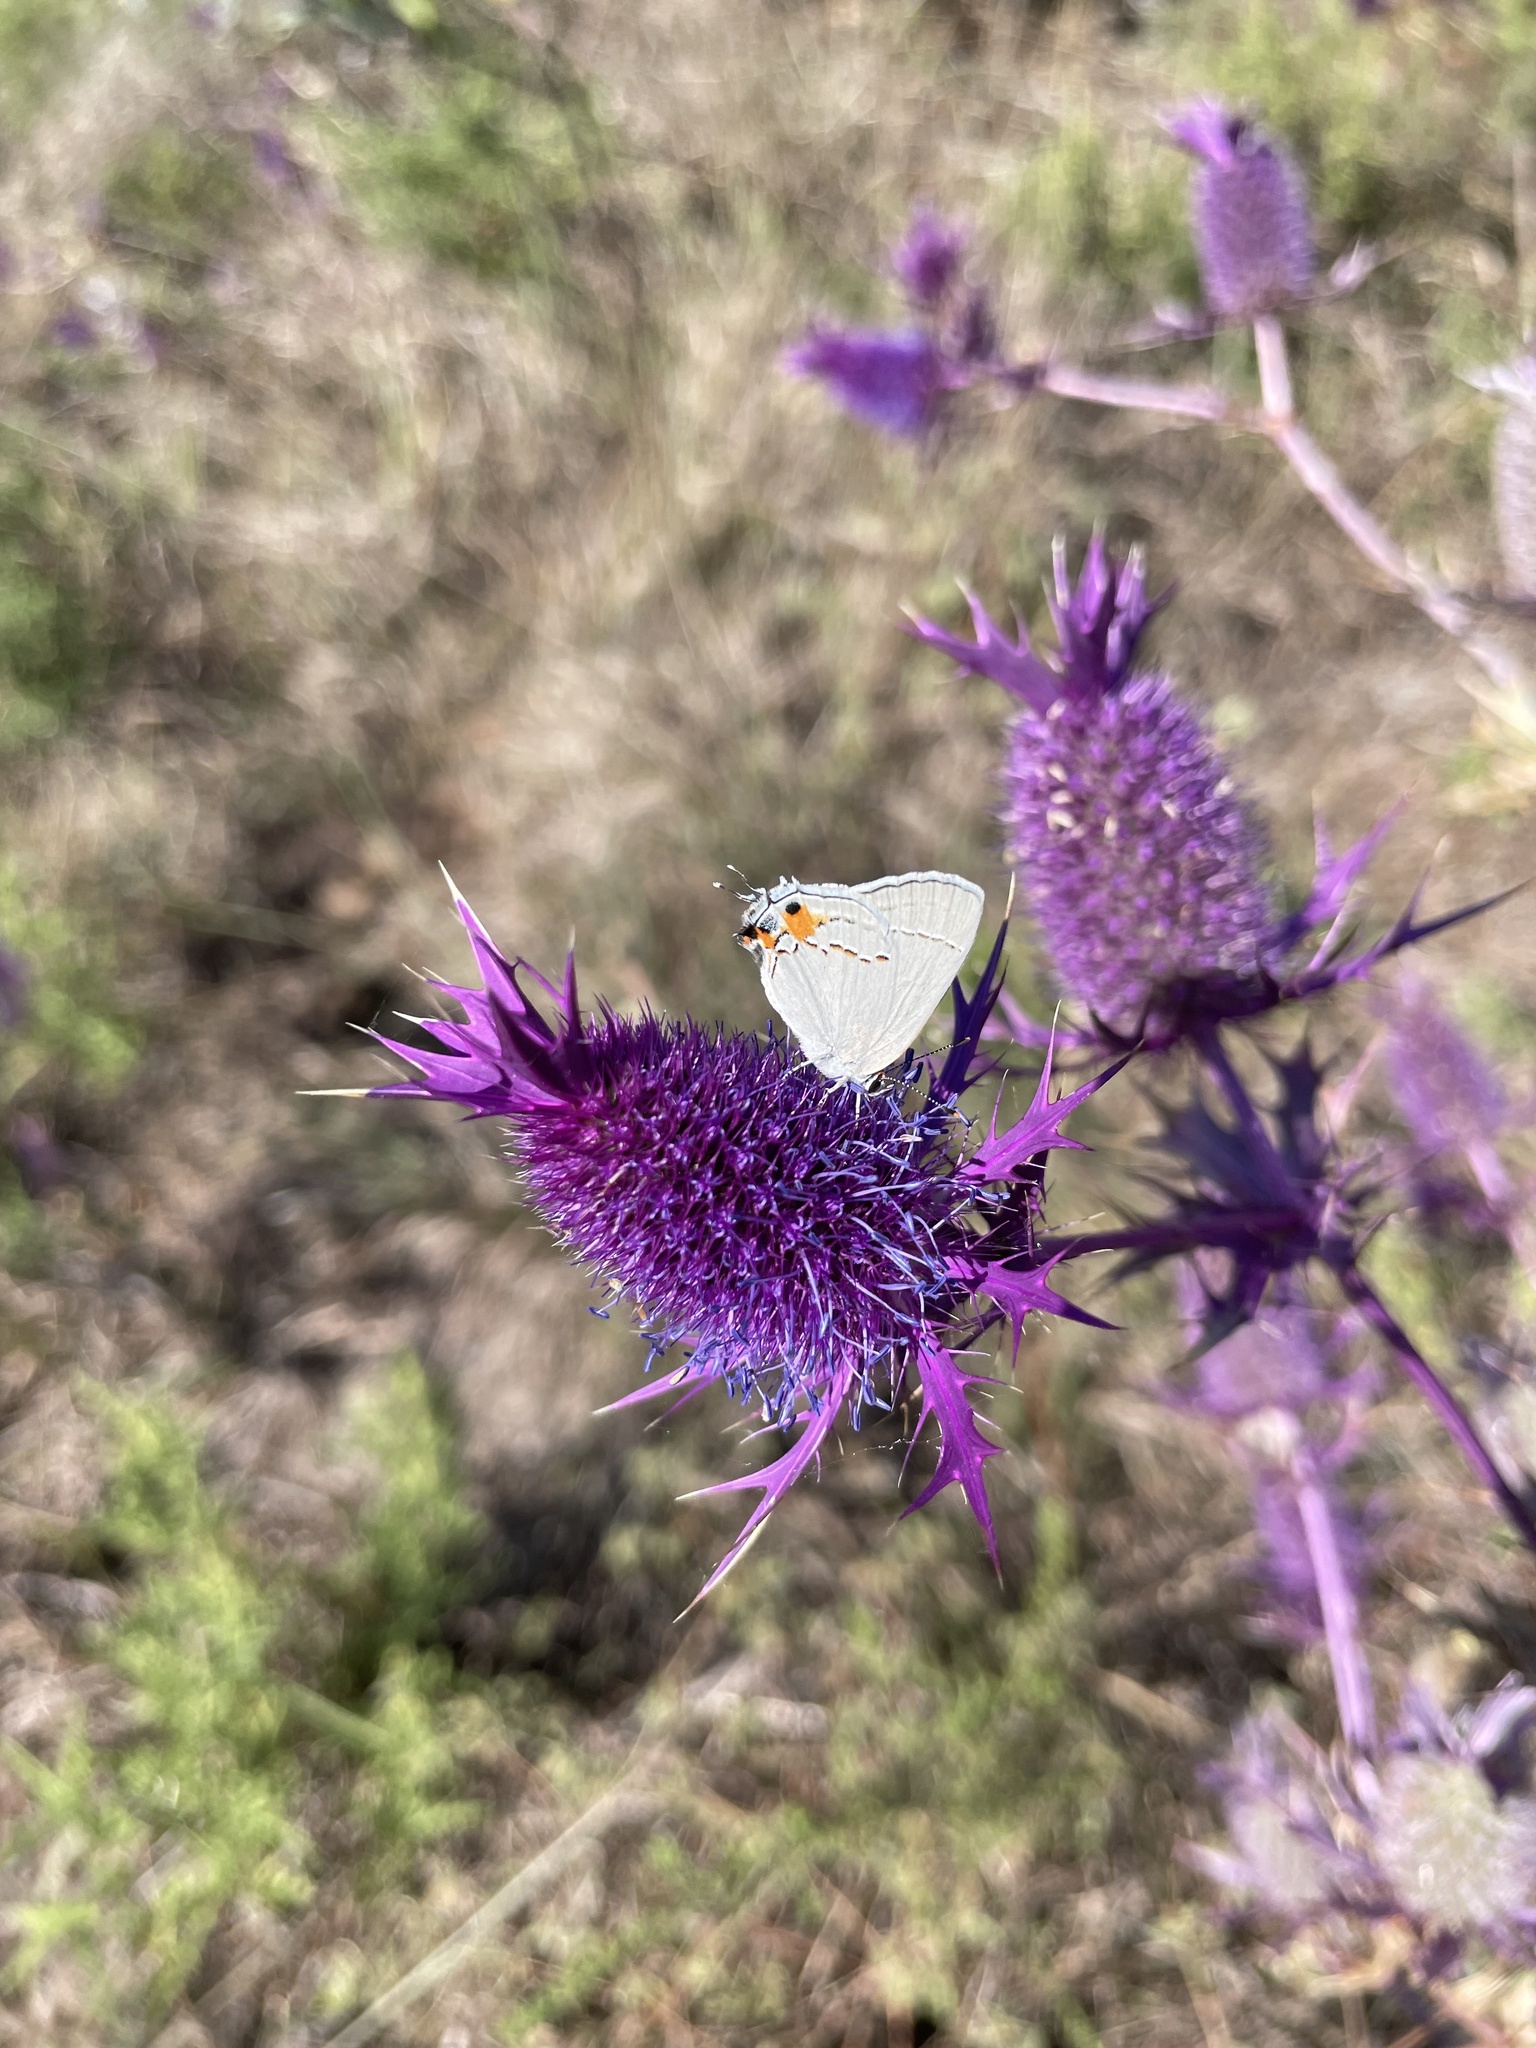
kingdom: Animalia
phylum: Arthropoda
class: Insecta
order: Lepidoptera
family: Lycaenidae
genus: Strymon
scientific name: Strymon melinus
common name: Gray hairstreak
